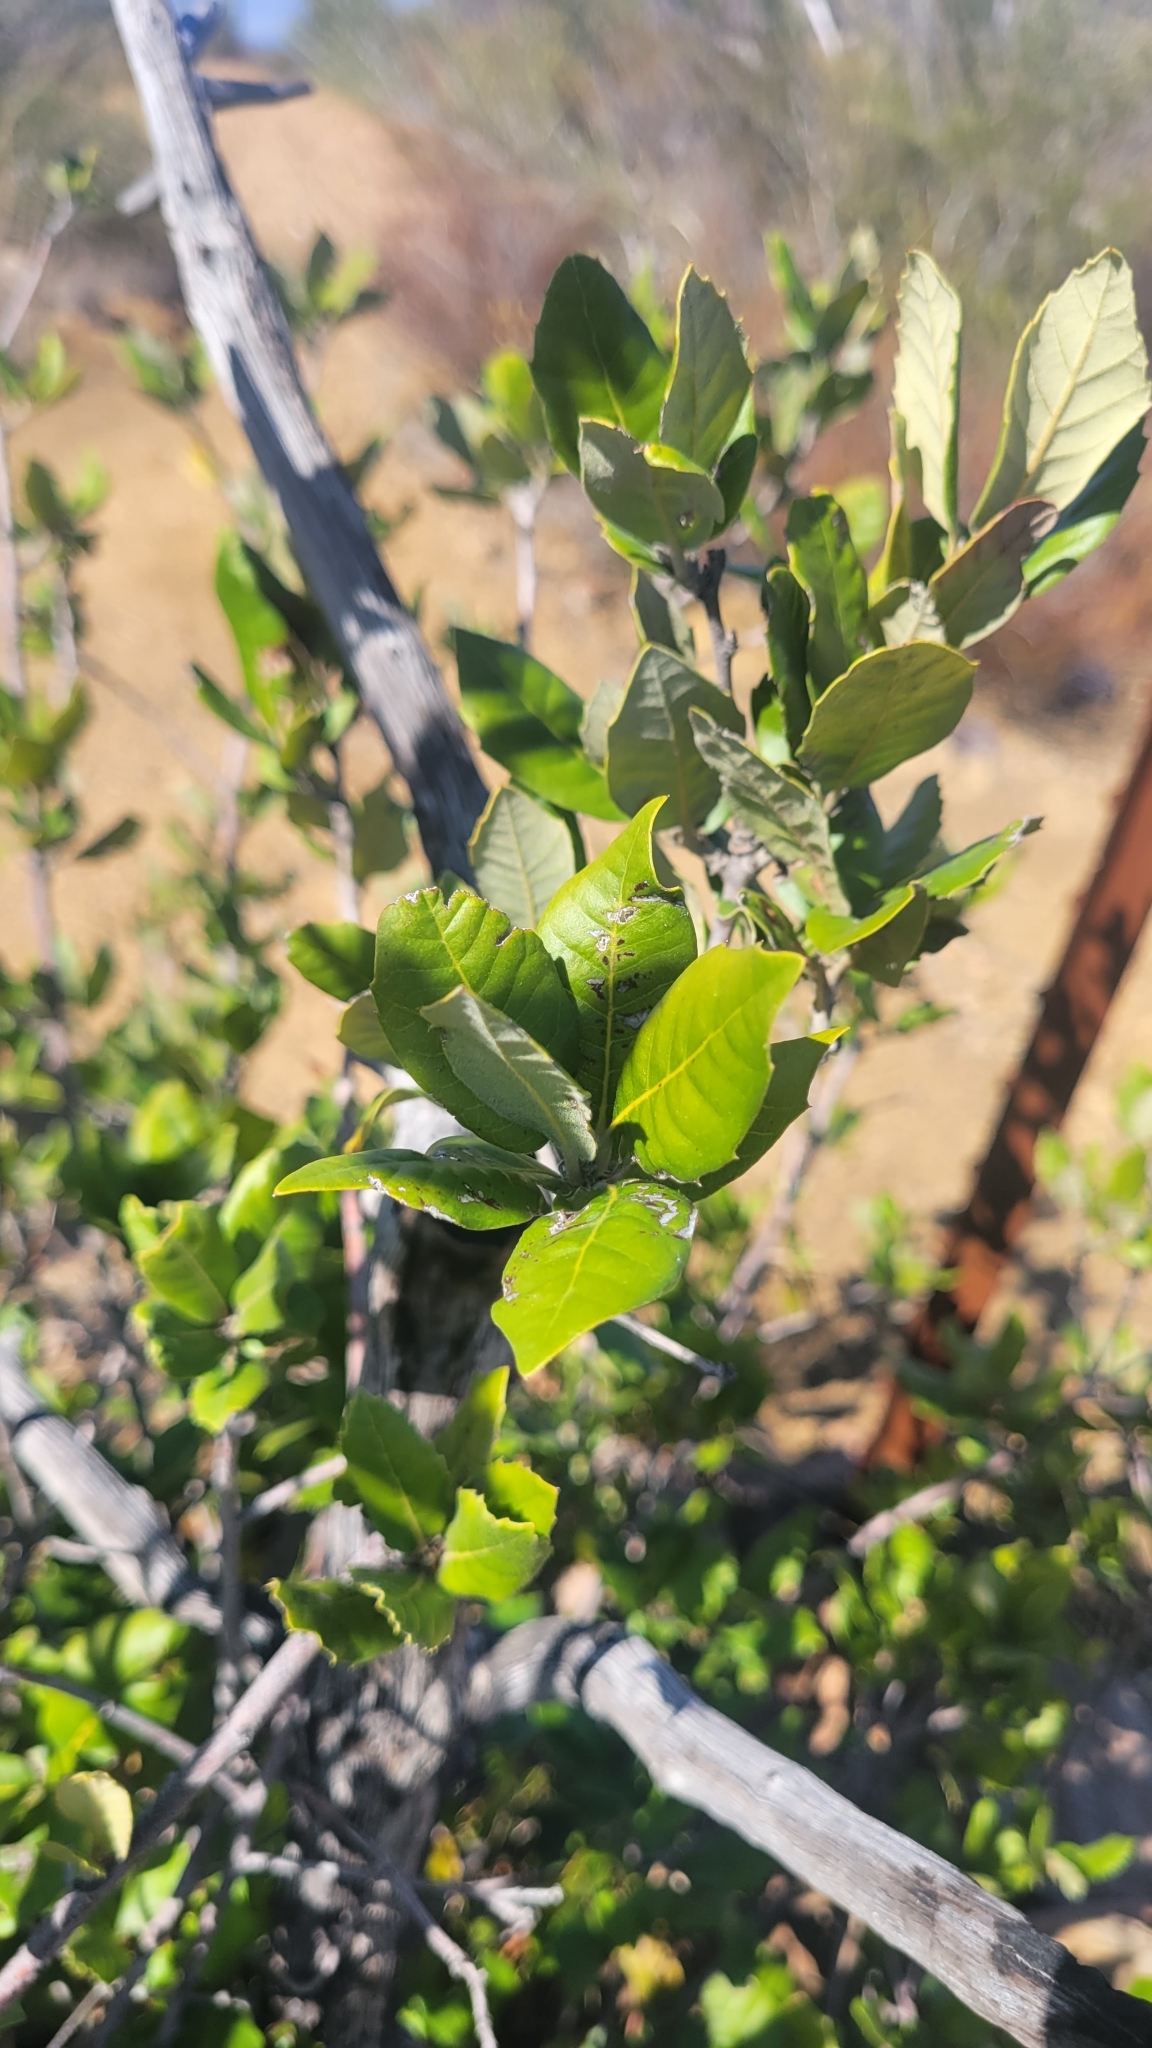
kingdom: Plantae
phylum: Tracheophyta
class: Magnoliopsida
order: Fagales
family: Fagaceae
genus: Quercus
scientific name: Quercus ilex
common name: Evergreen oak
